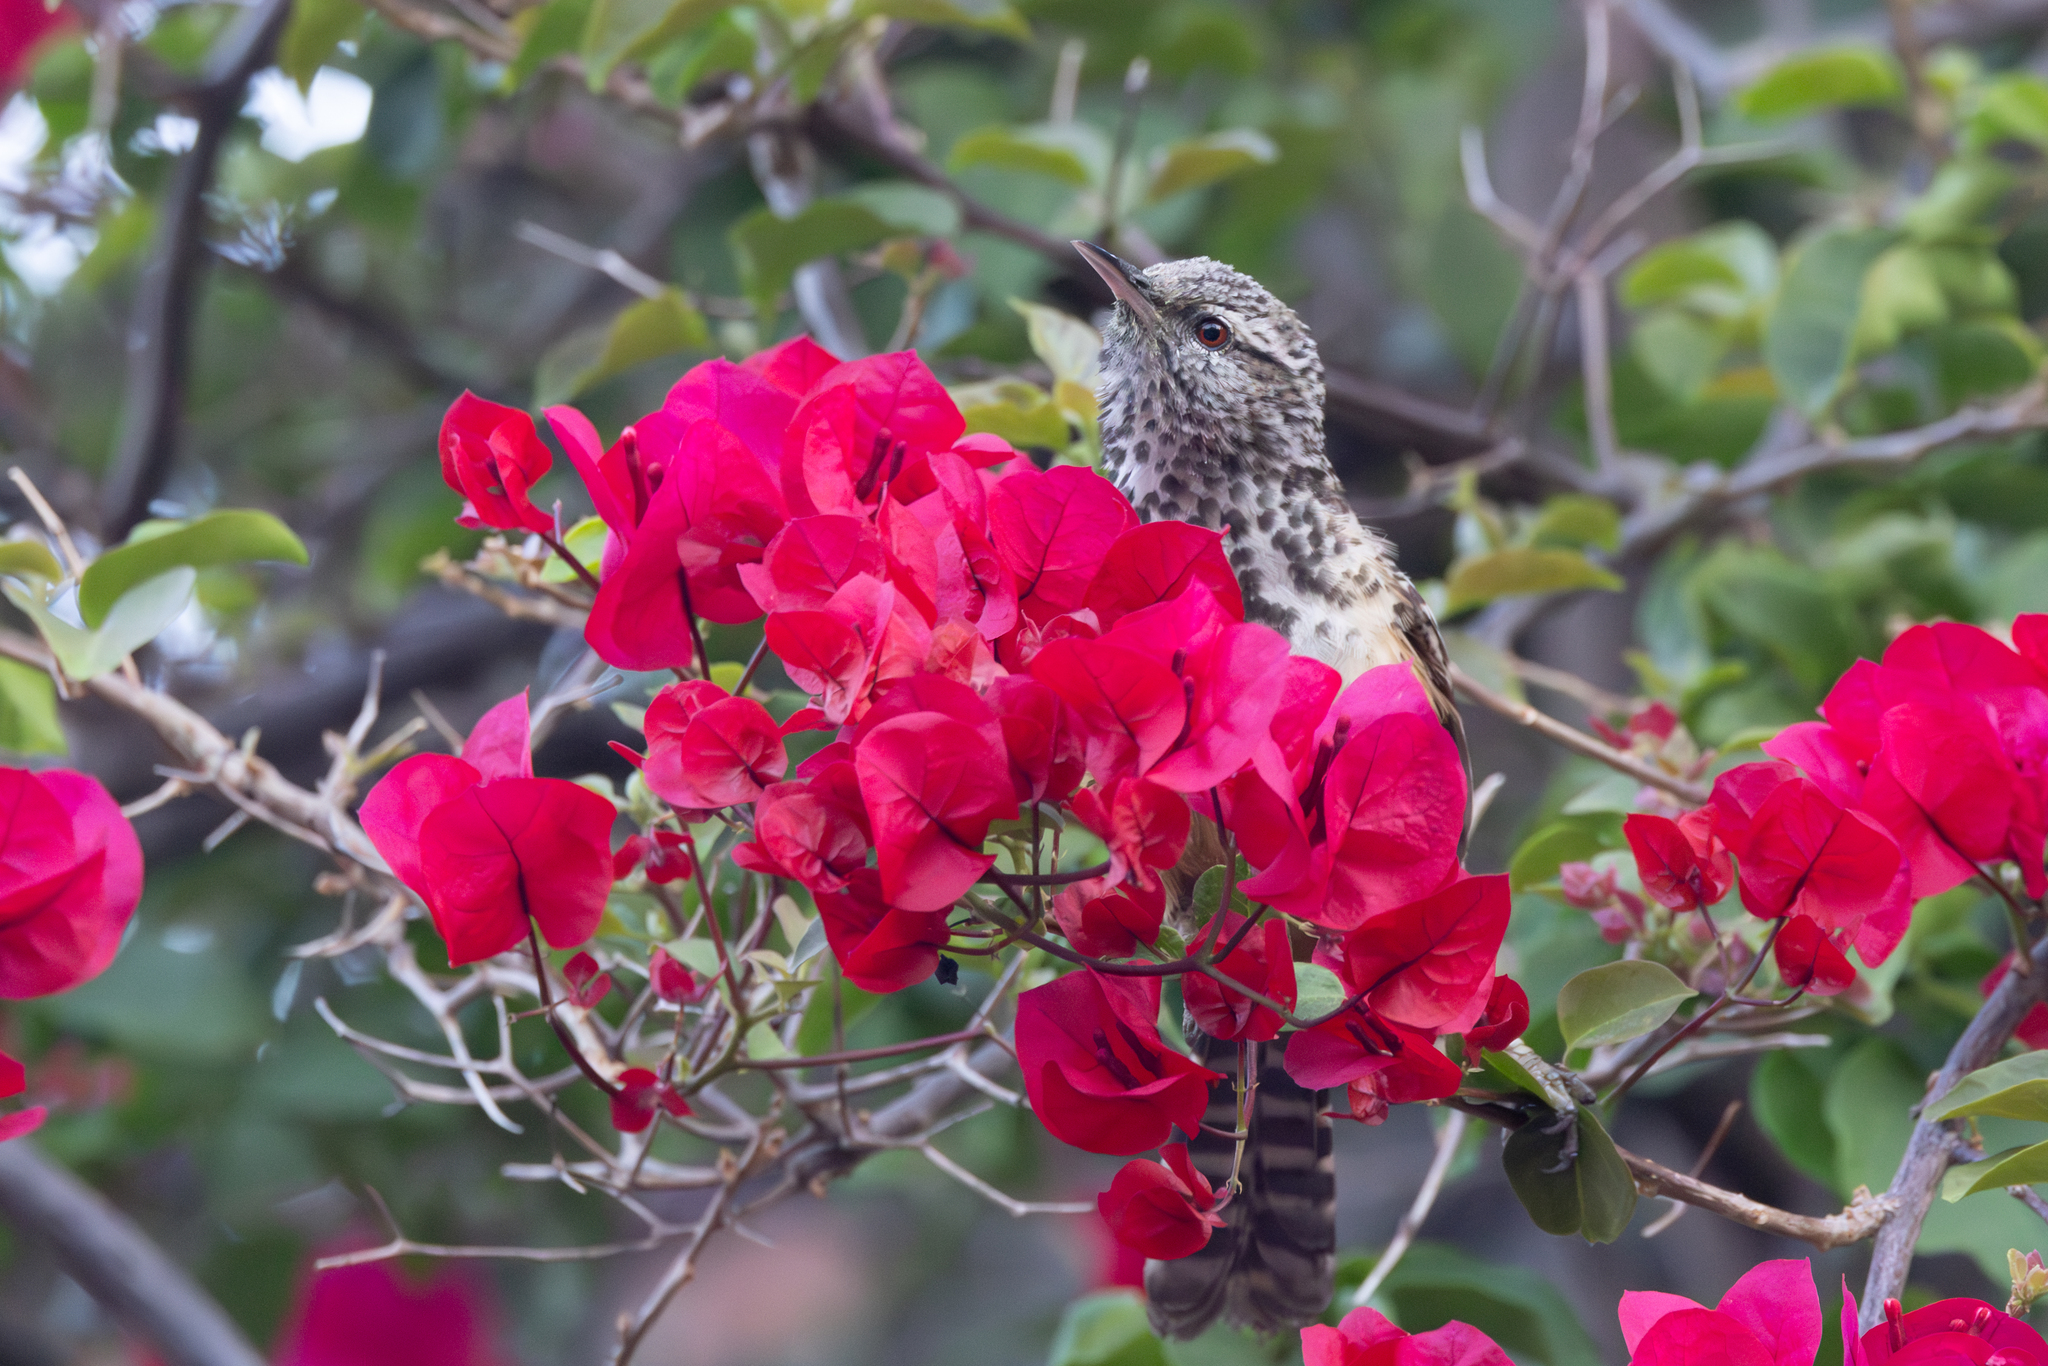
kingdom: Animalia
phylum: Chordata
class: Aves
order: Passeriformes
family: Troglodytidae
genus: Campylorhynchus
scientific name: Campylorhynchus zonatus
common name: Band-backed wren
